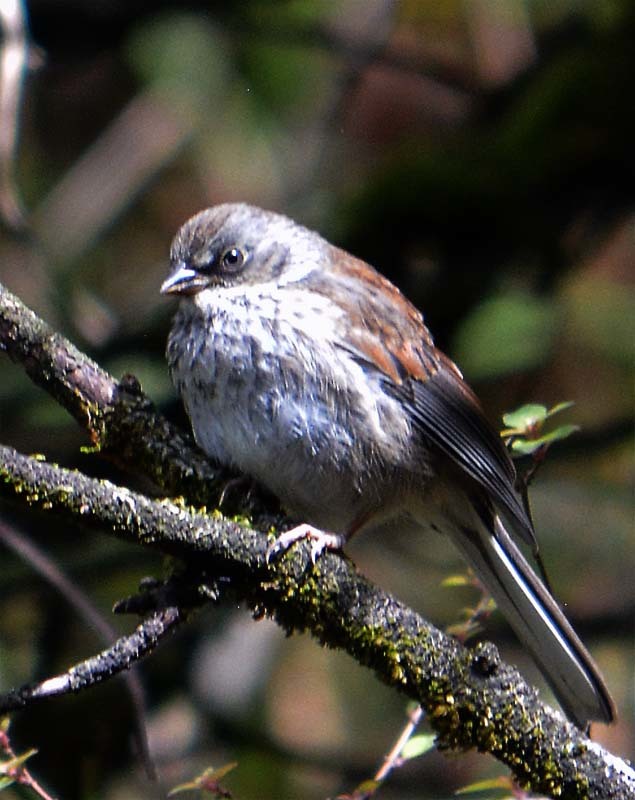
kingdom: Animalia
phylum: Chordata
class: Aves
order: Passeriformes
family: Passerellidae
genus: Junco
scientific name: Junco phaeonotus
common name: Yellow-eyed junco
